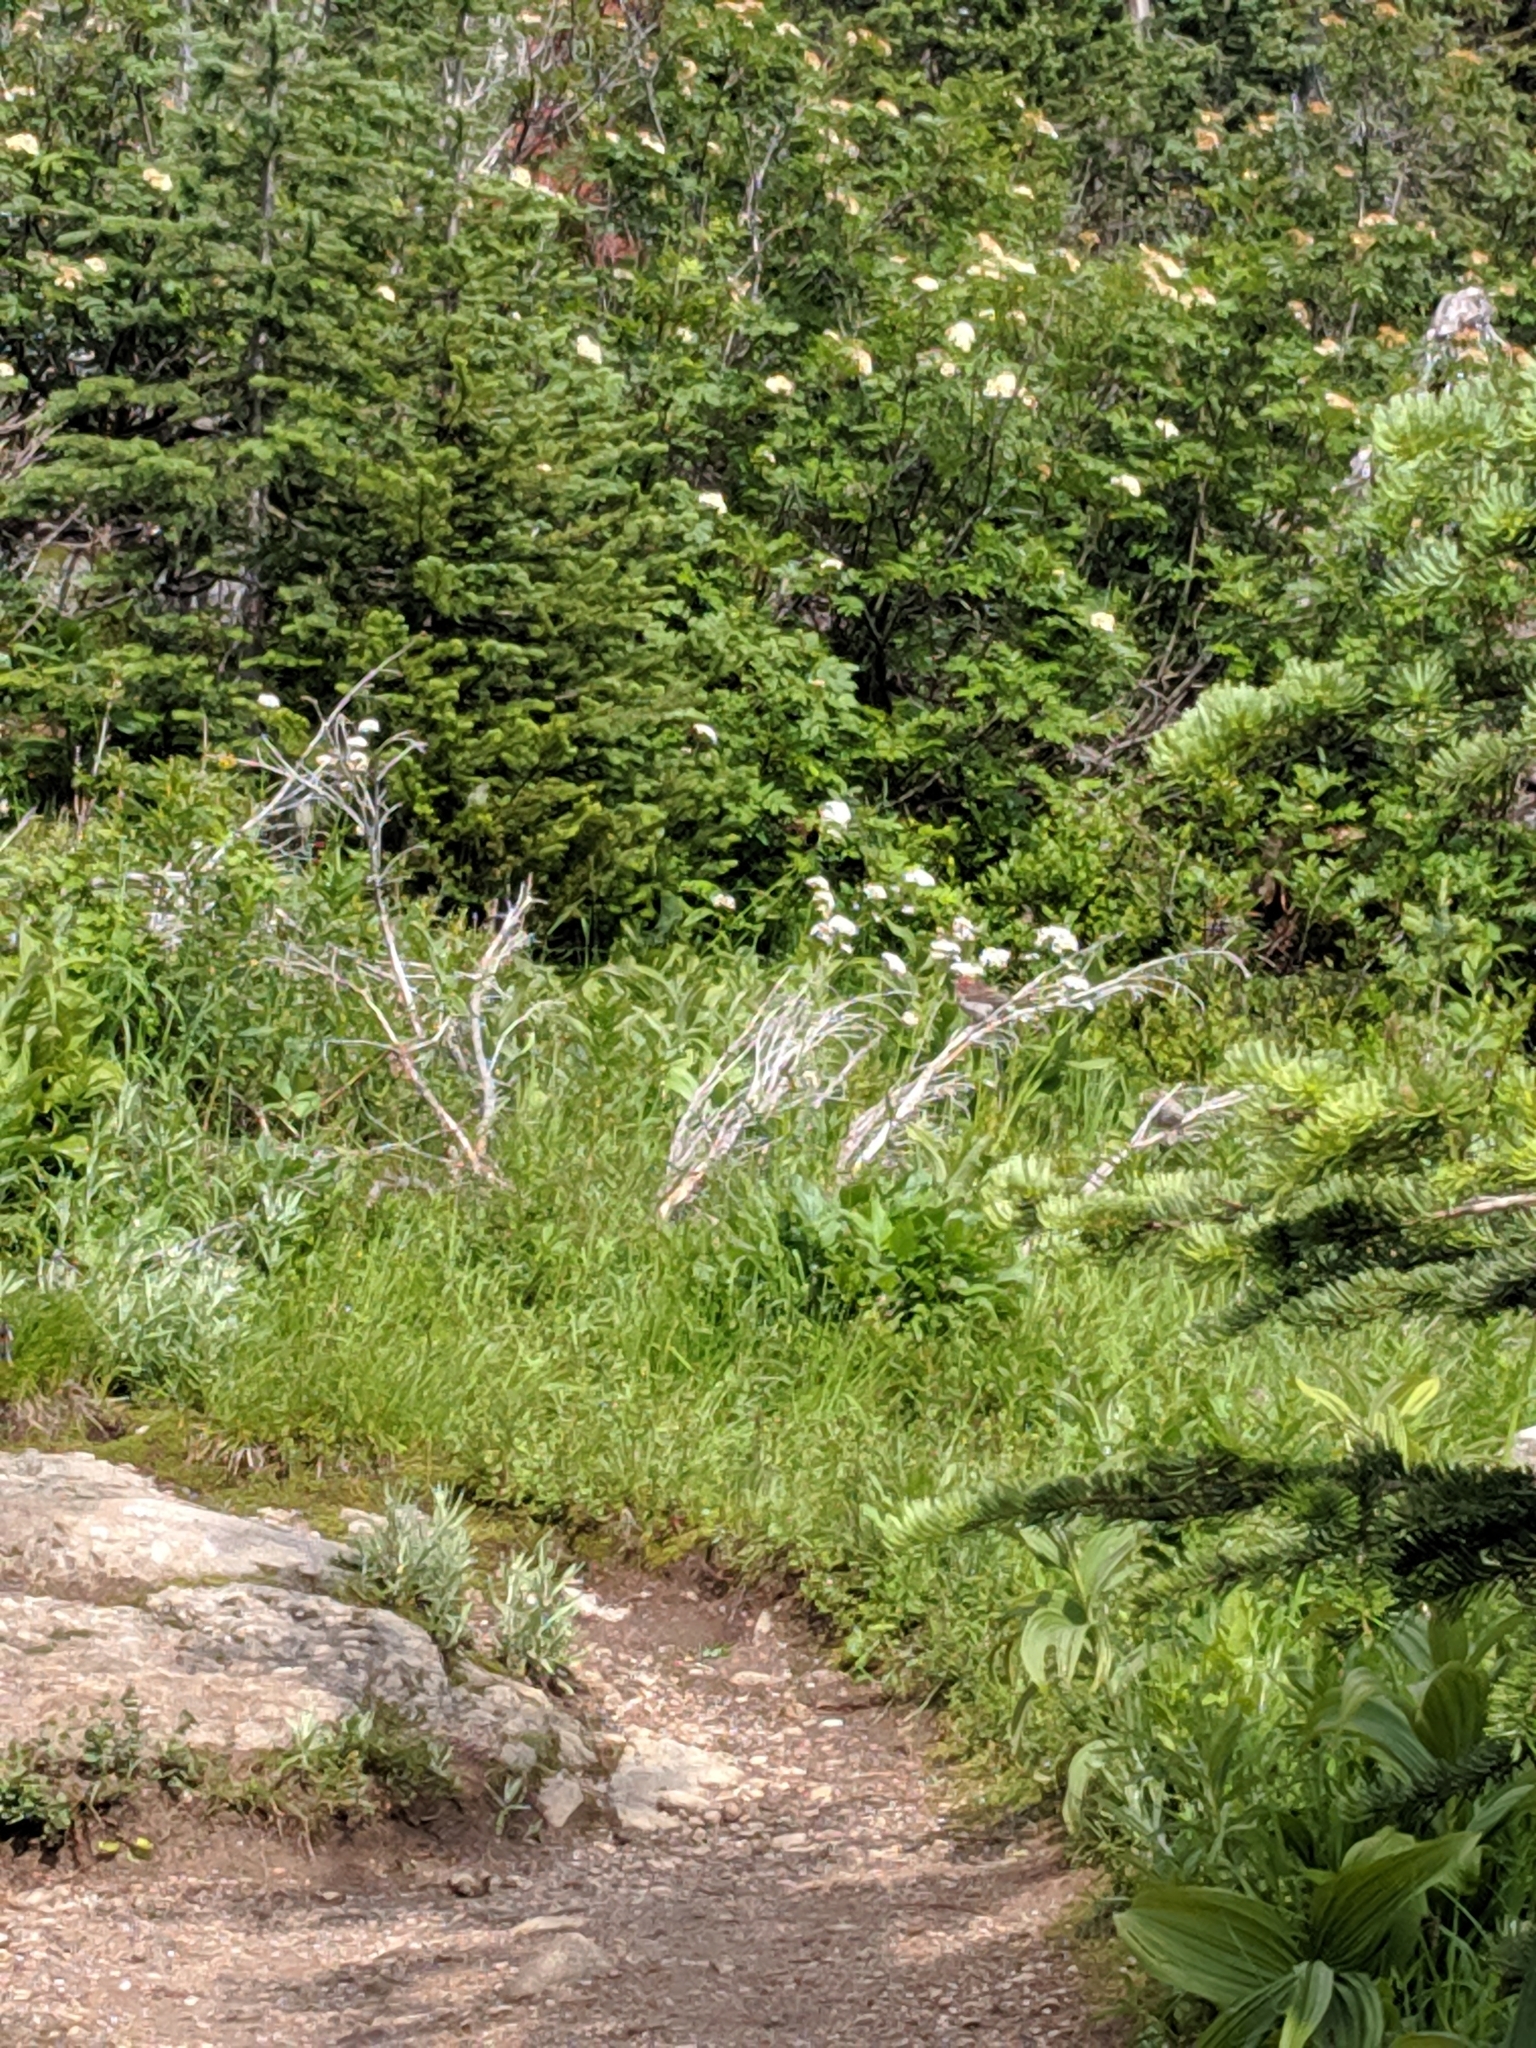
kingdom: Animalia
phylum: Chordata
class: Aves
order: Passeriformes
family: Fringillidae
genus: Haemorhous
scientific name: Haemorhous cassinii
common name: Cassin's finch
